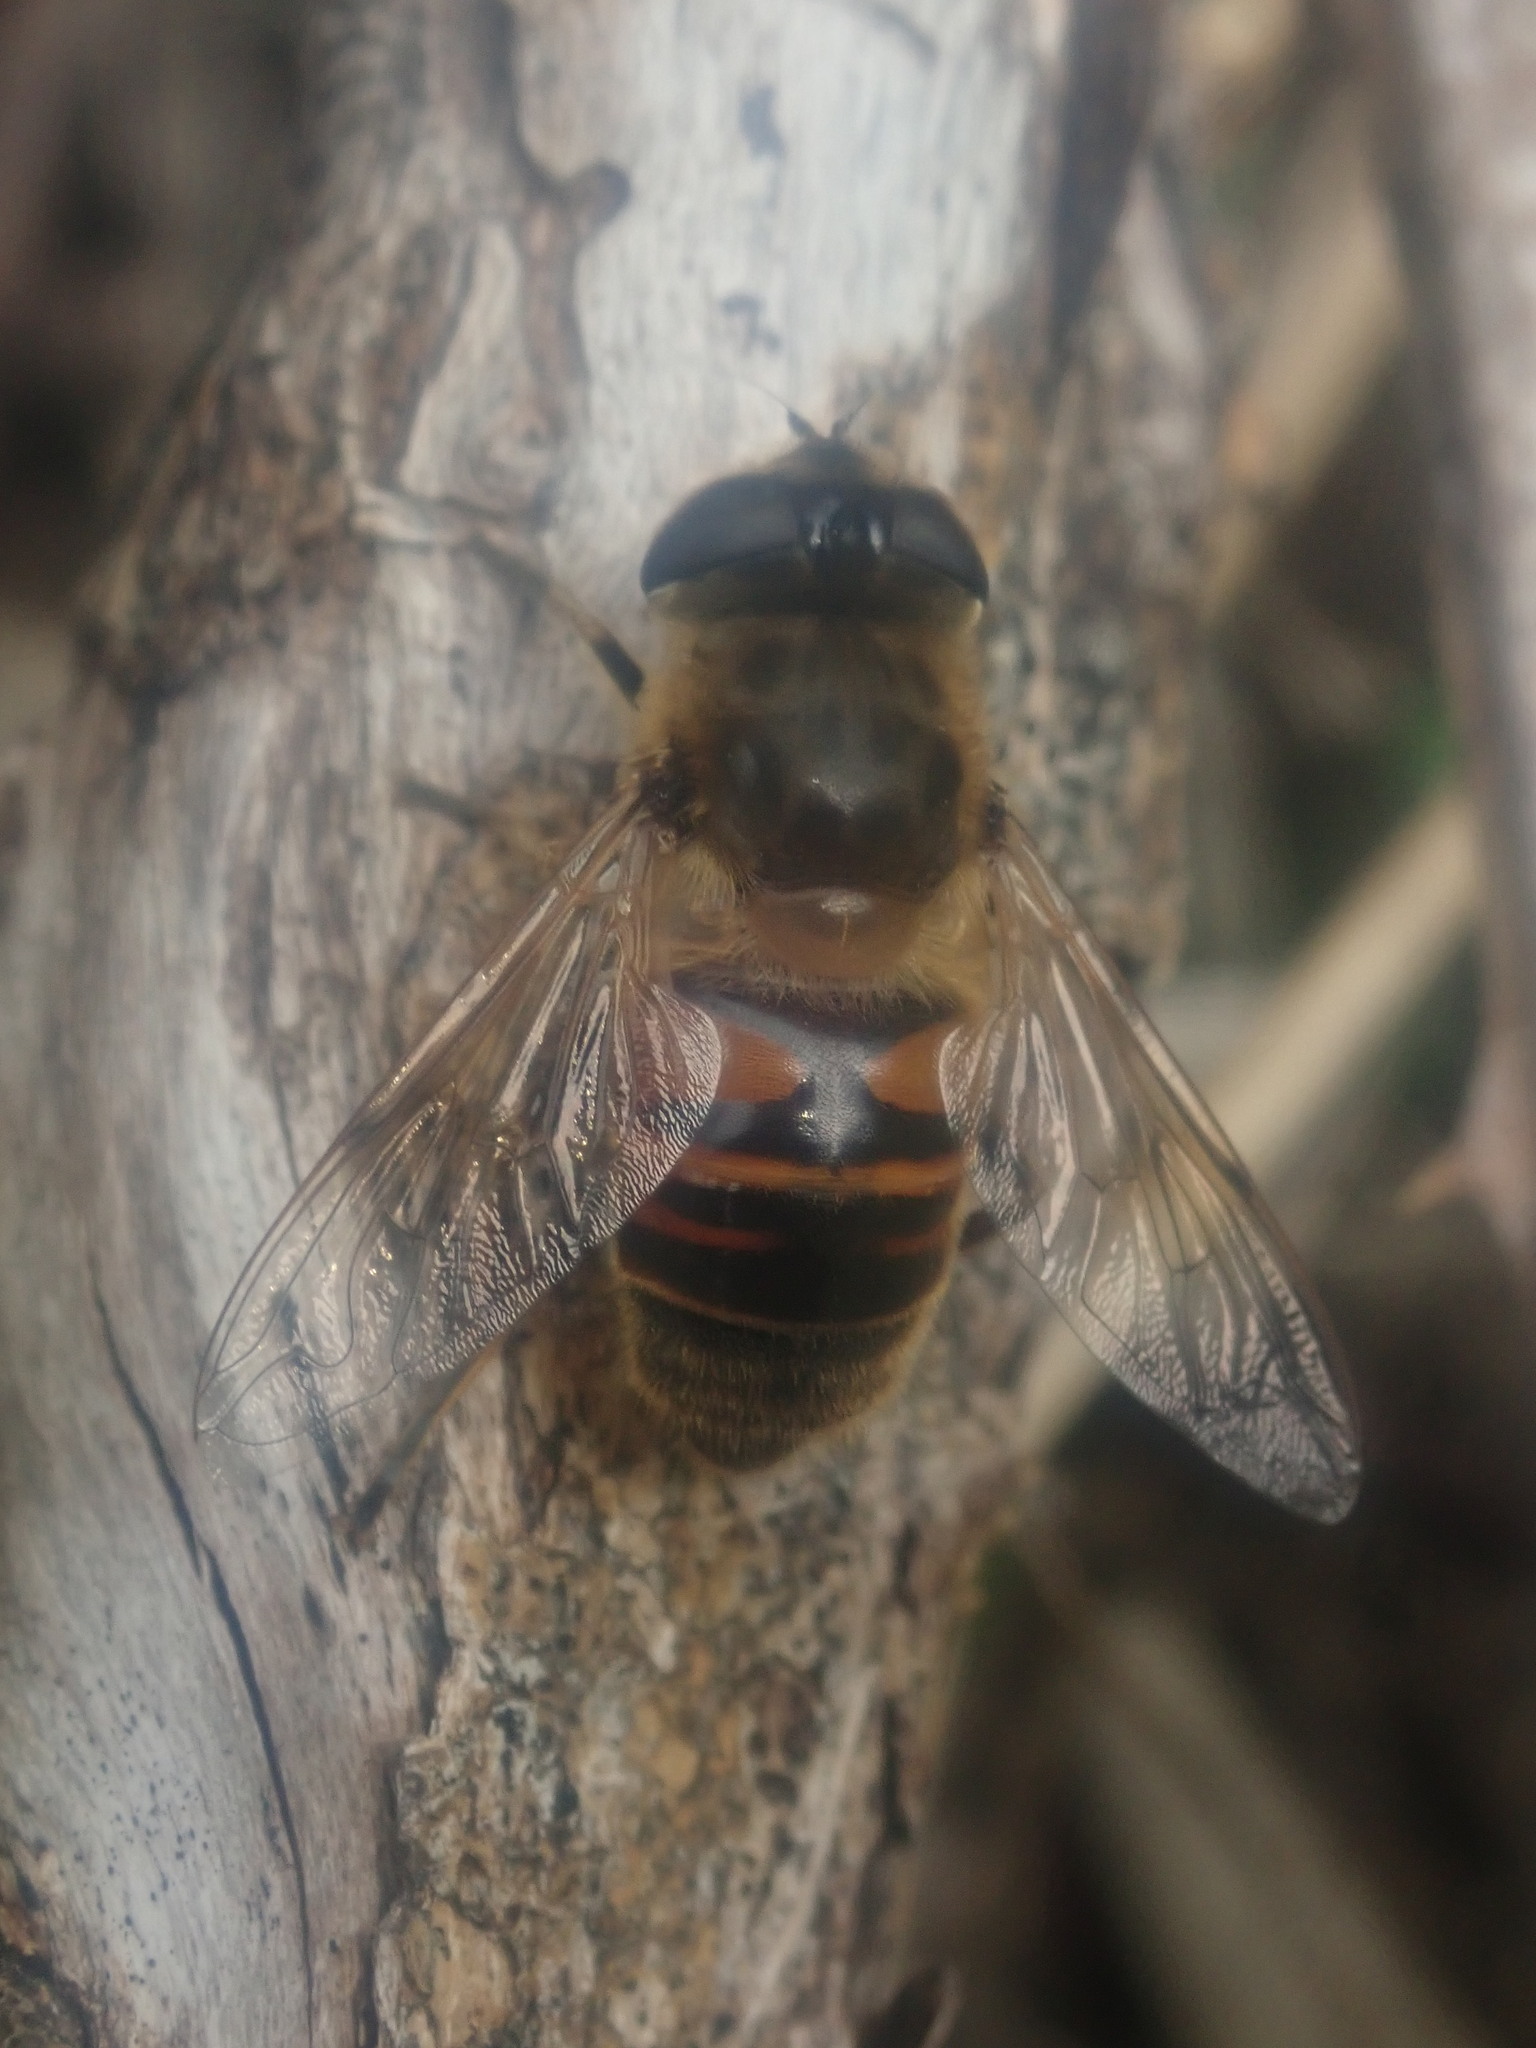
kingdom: Animalia
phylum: Arthropoda
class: Insecta
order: Diptera
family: Syrphidae
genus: Eristalis
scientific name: Eristalis tenax
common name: Drone fly
